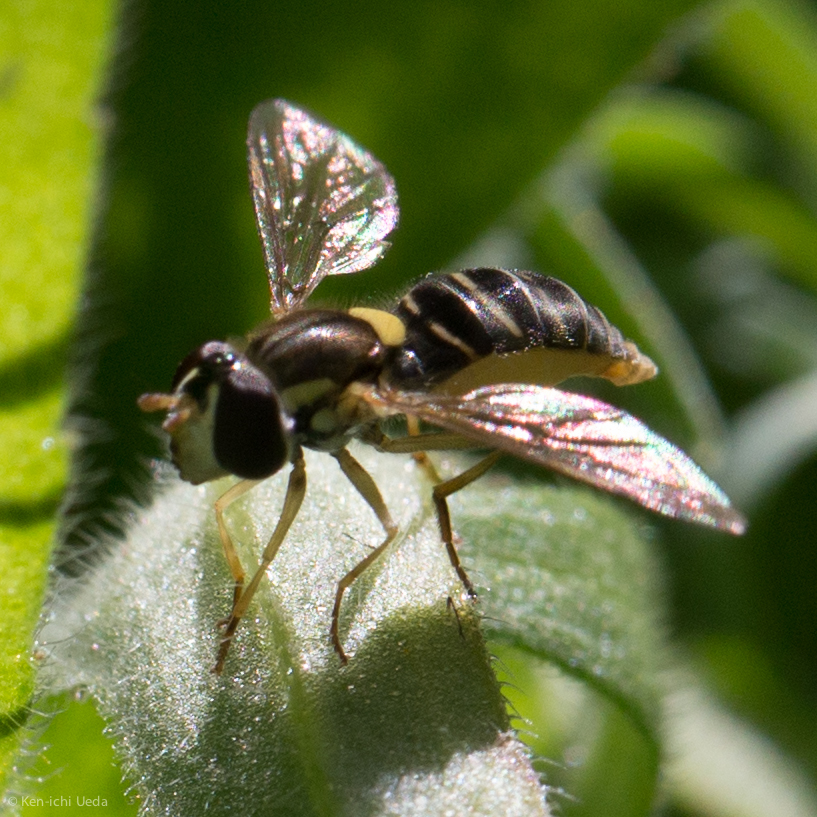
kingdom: Animalia
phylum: Arthropoda
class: Insecta
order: Diptera
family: Syrphidae
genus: Sphaerophoria
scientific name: Sphaerophoria sulphuripes
